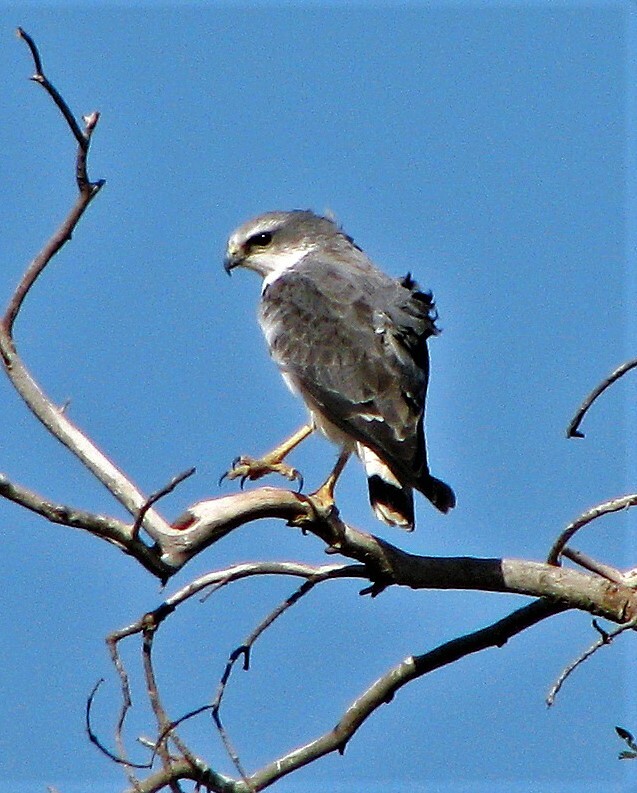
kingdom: Animalia
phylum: Chordata
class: Aves
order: Accipitriformes
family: Accipitridae
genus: Buteo
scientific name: Buteo polyosoma
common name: Variable hawk
